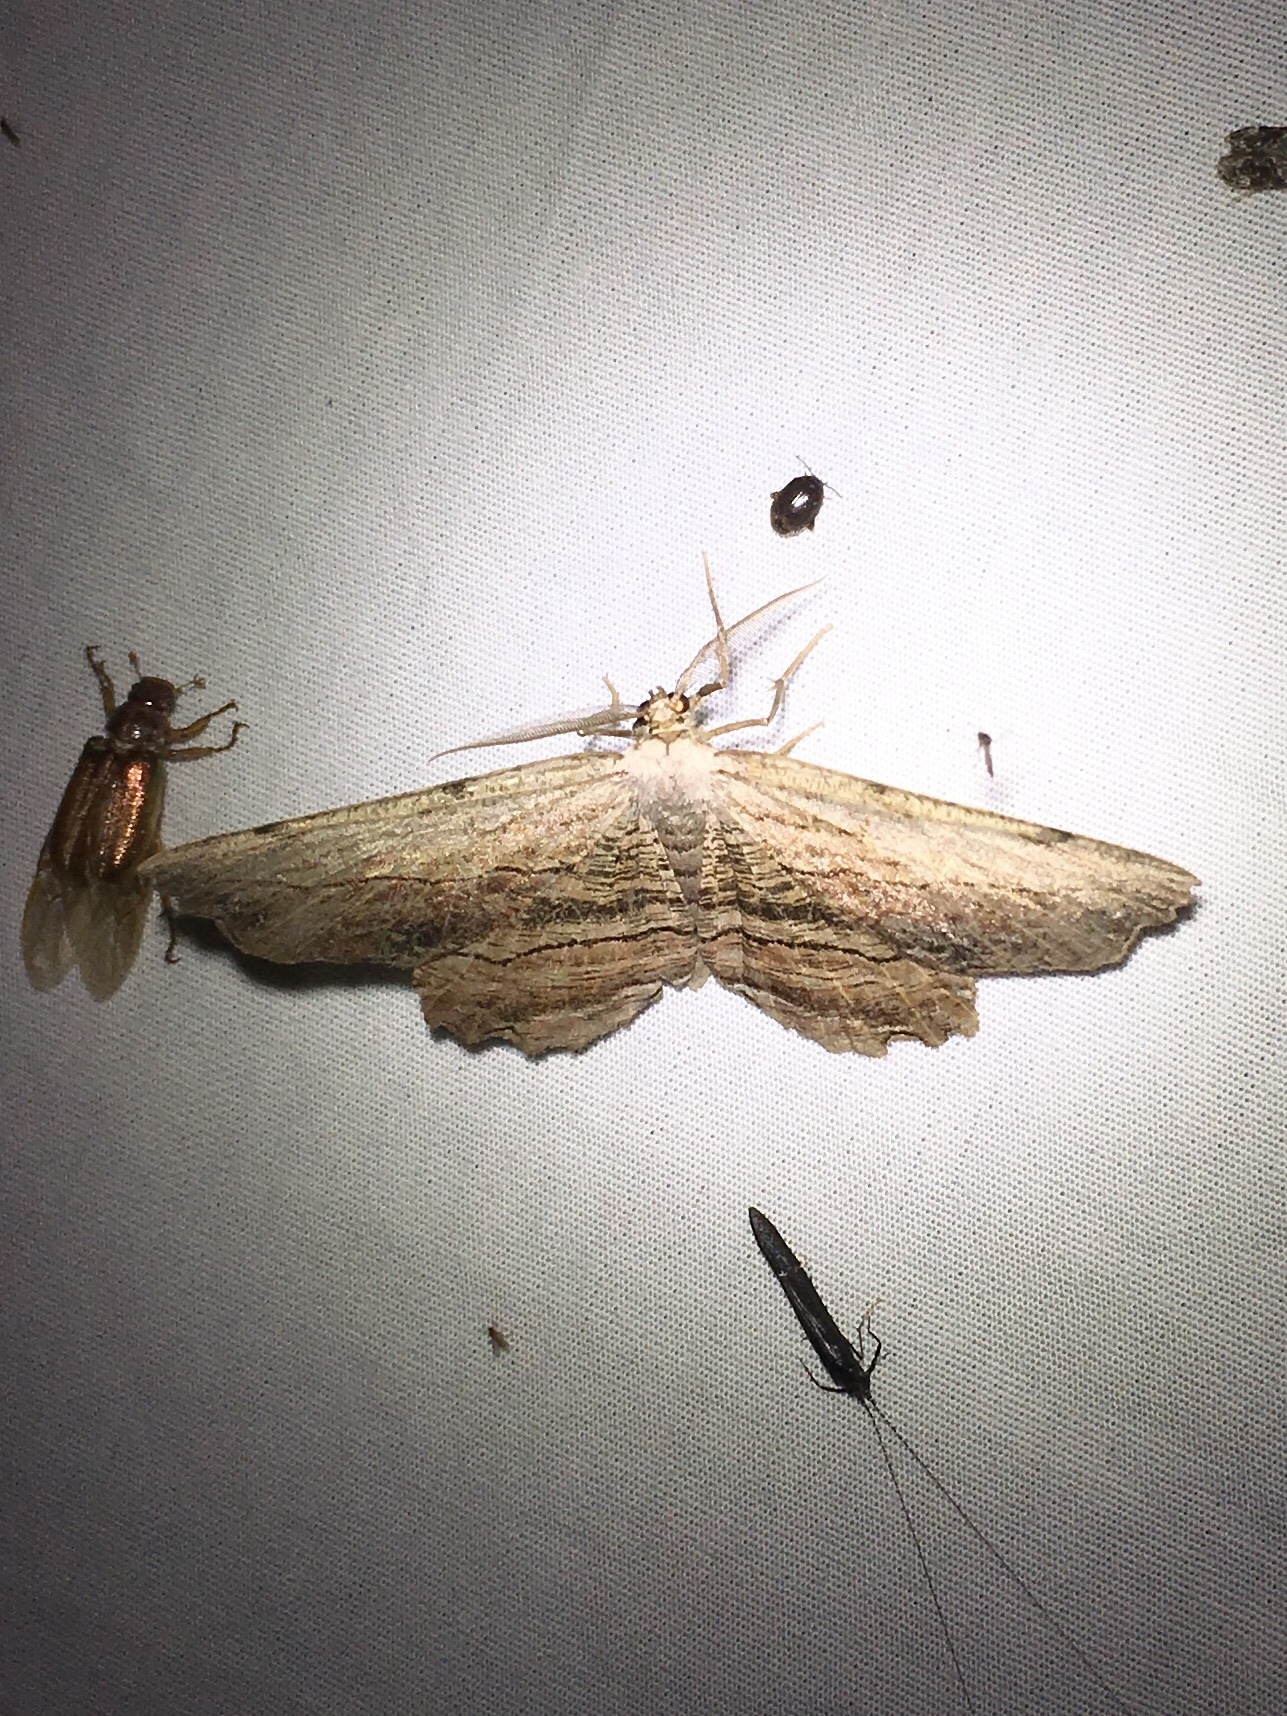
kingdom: Animalia
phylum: Arthropoda
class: Insecta
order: Lepidoptera
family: Geometridae
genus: Lytrosis
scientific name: Lytrosis unitaria
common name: Common lytrosis
